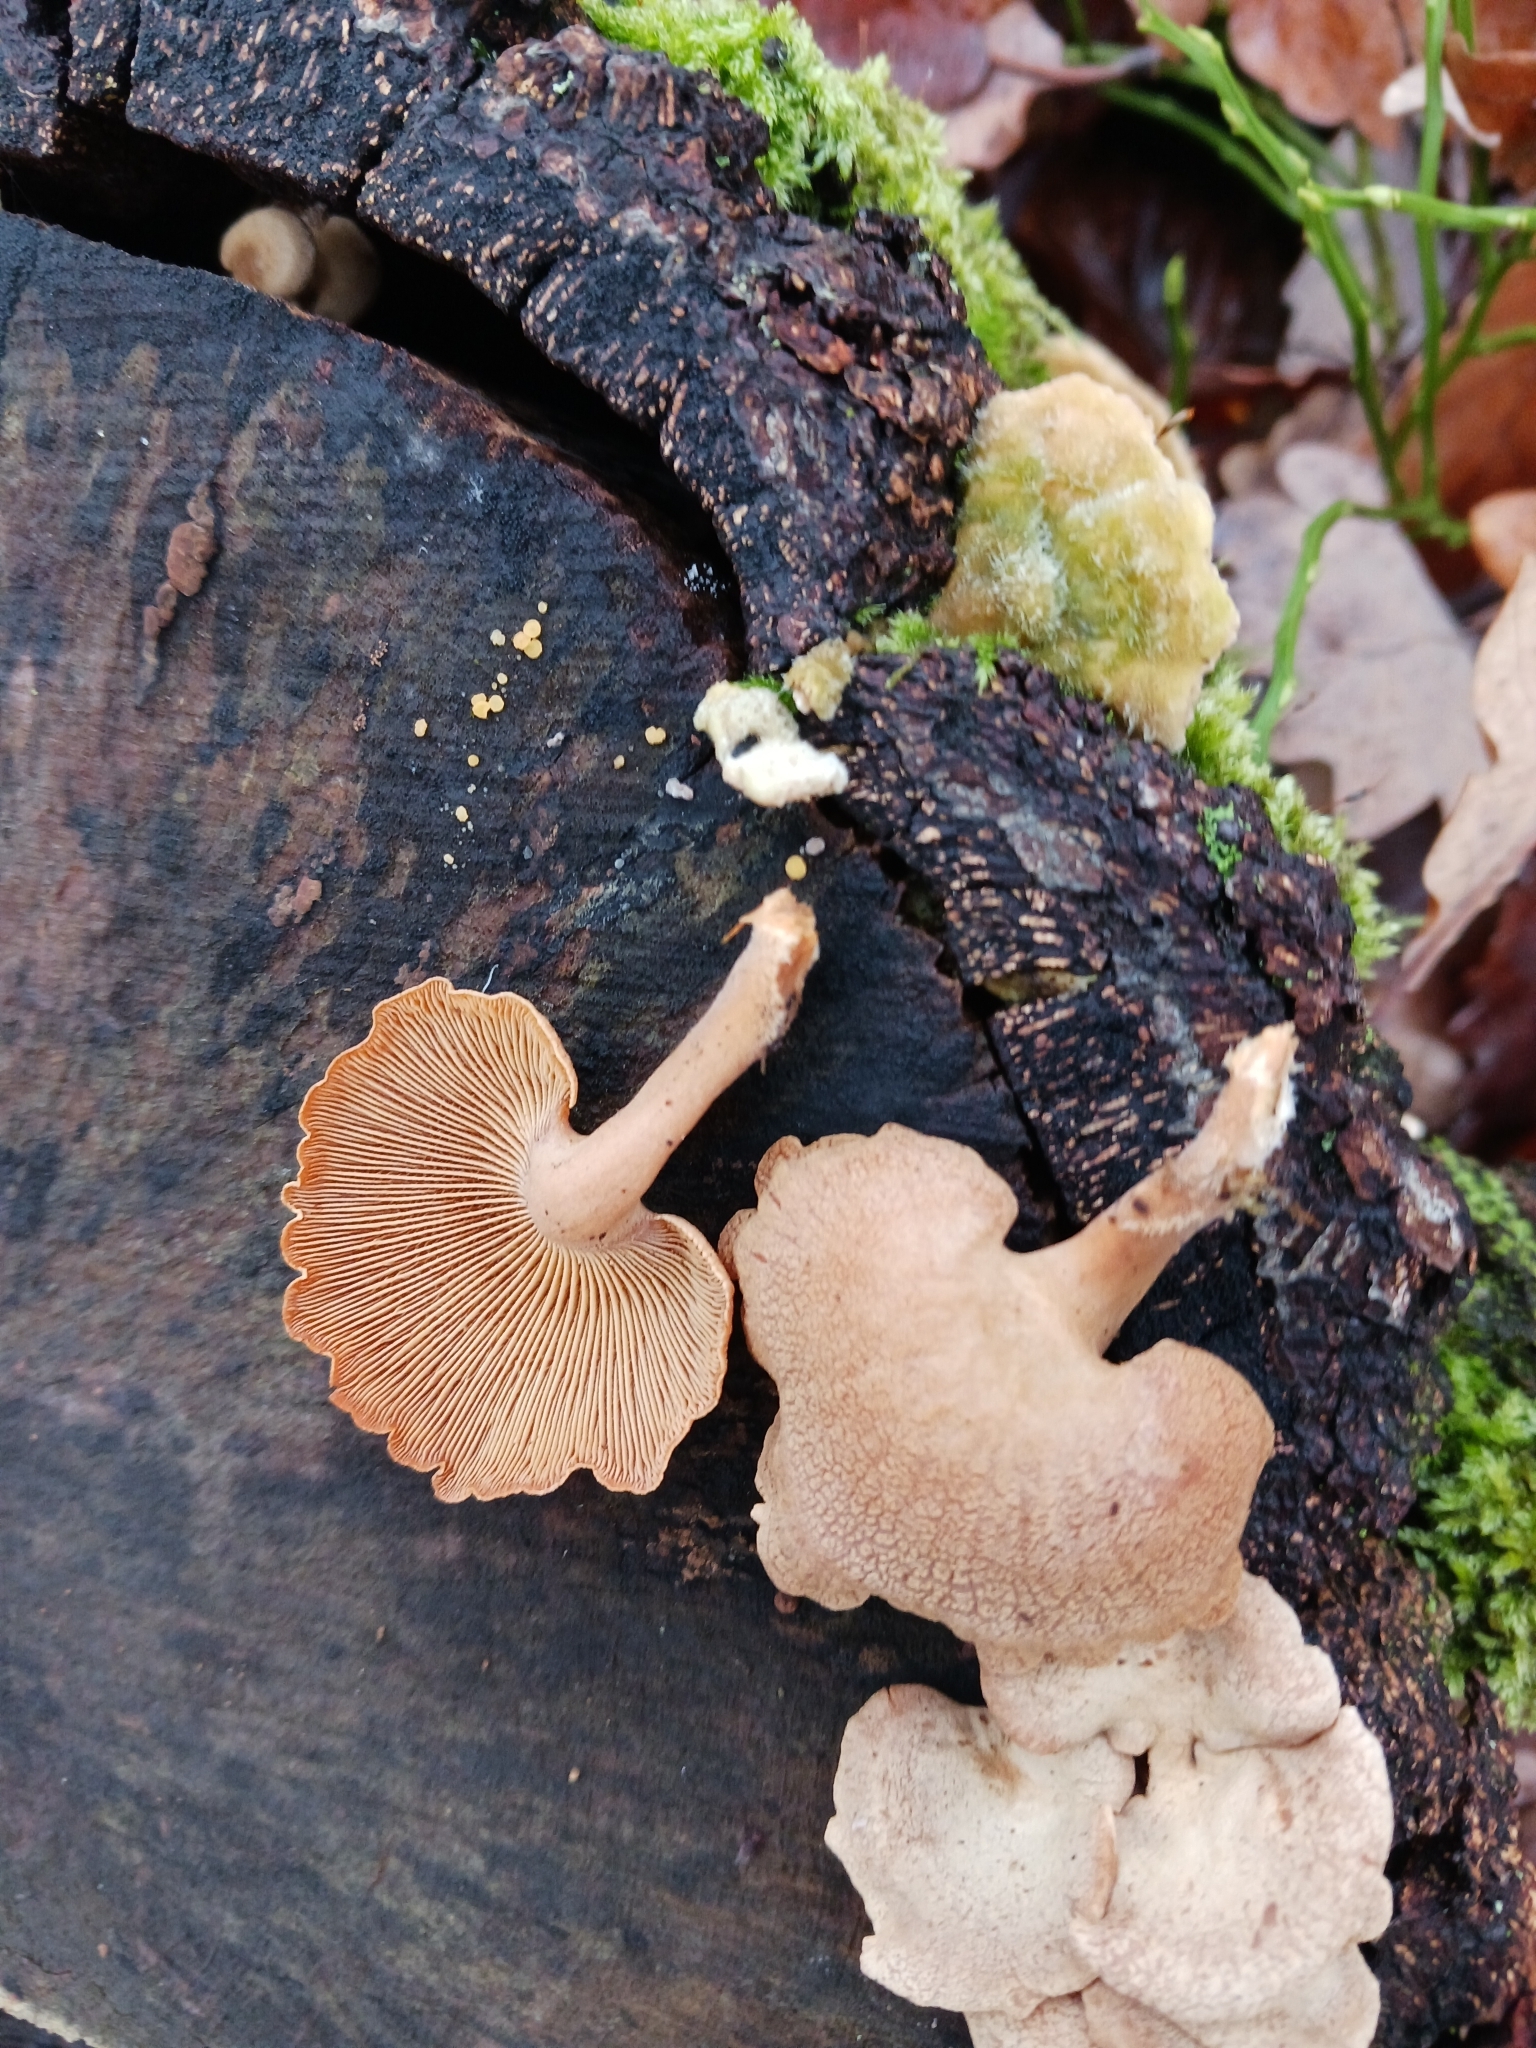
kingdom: Fungi
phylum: Basidiomycota
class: Agaricomycetes
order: Agaricales
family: Mycenaceae
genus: Panellus
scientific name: Panellus stipticus
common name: Bitter oysterling
